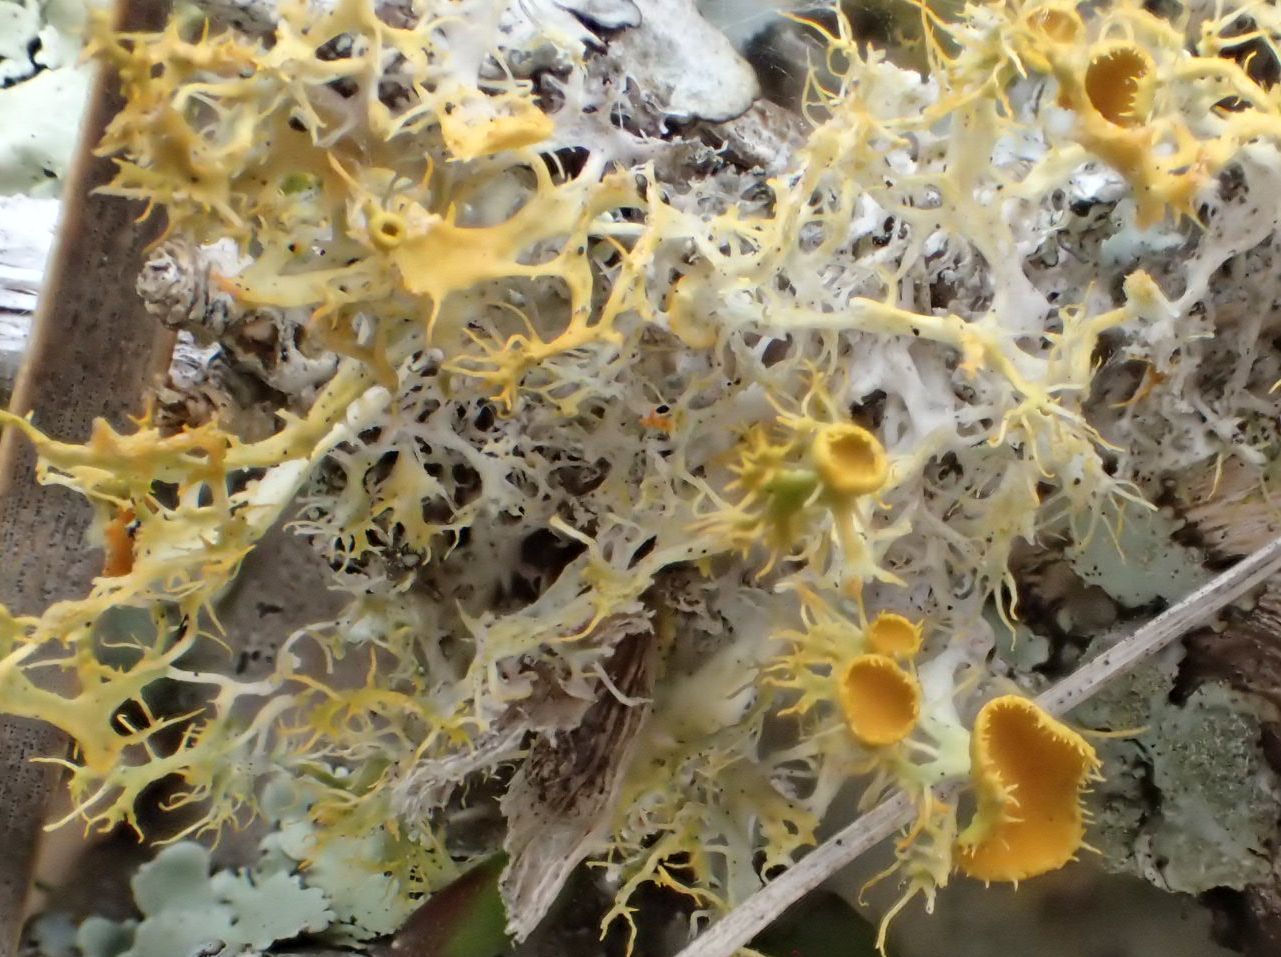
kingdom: Fungi
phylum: Ascomycota
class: Lecanoromycetes
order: Teloschistales
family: Teloschistaceae
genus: Niorma
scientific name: Niorma chrysophthalma
